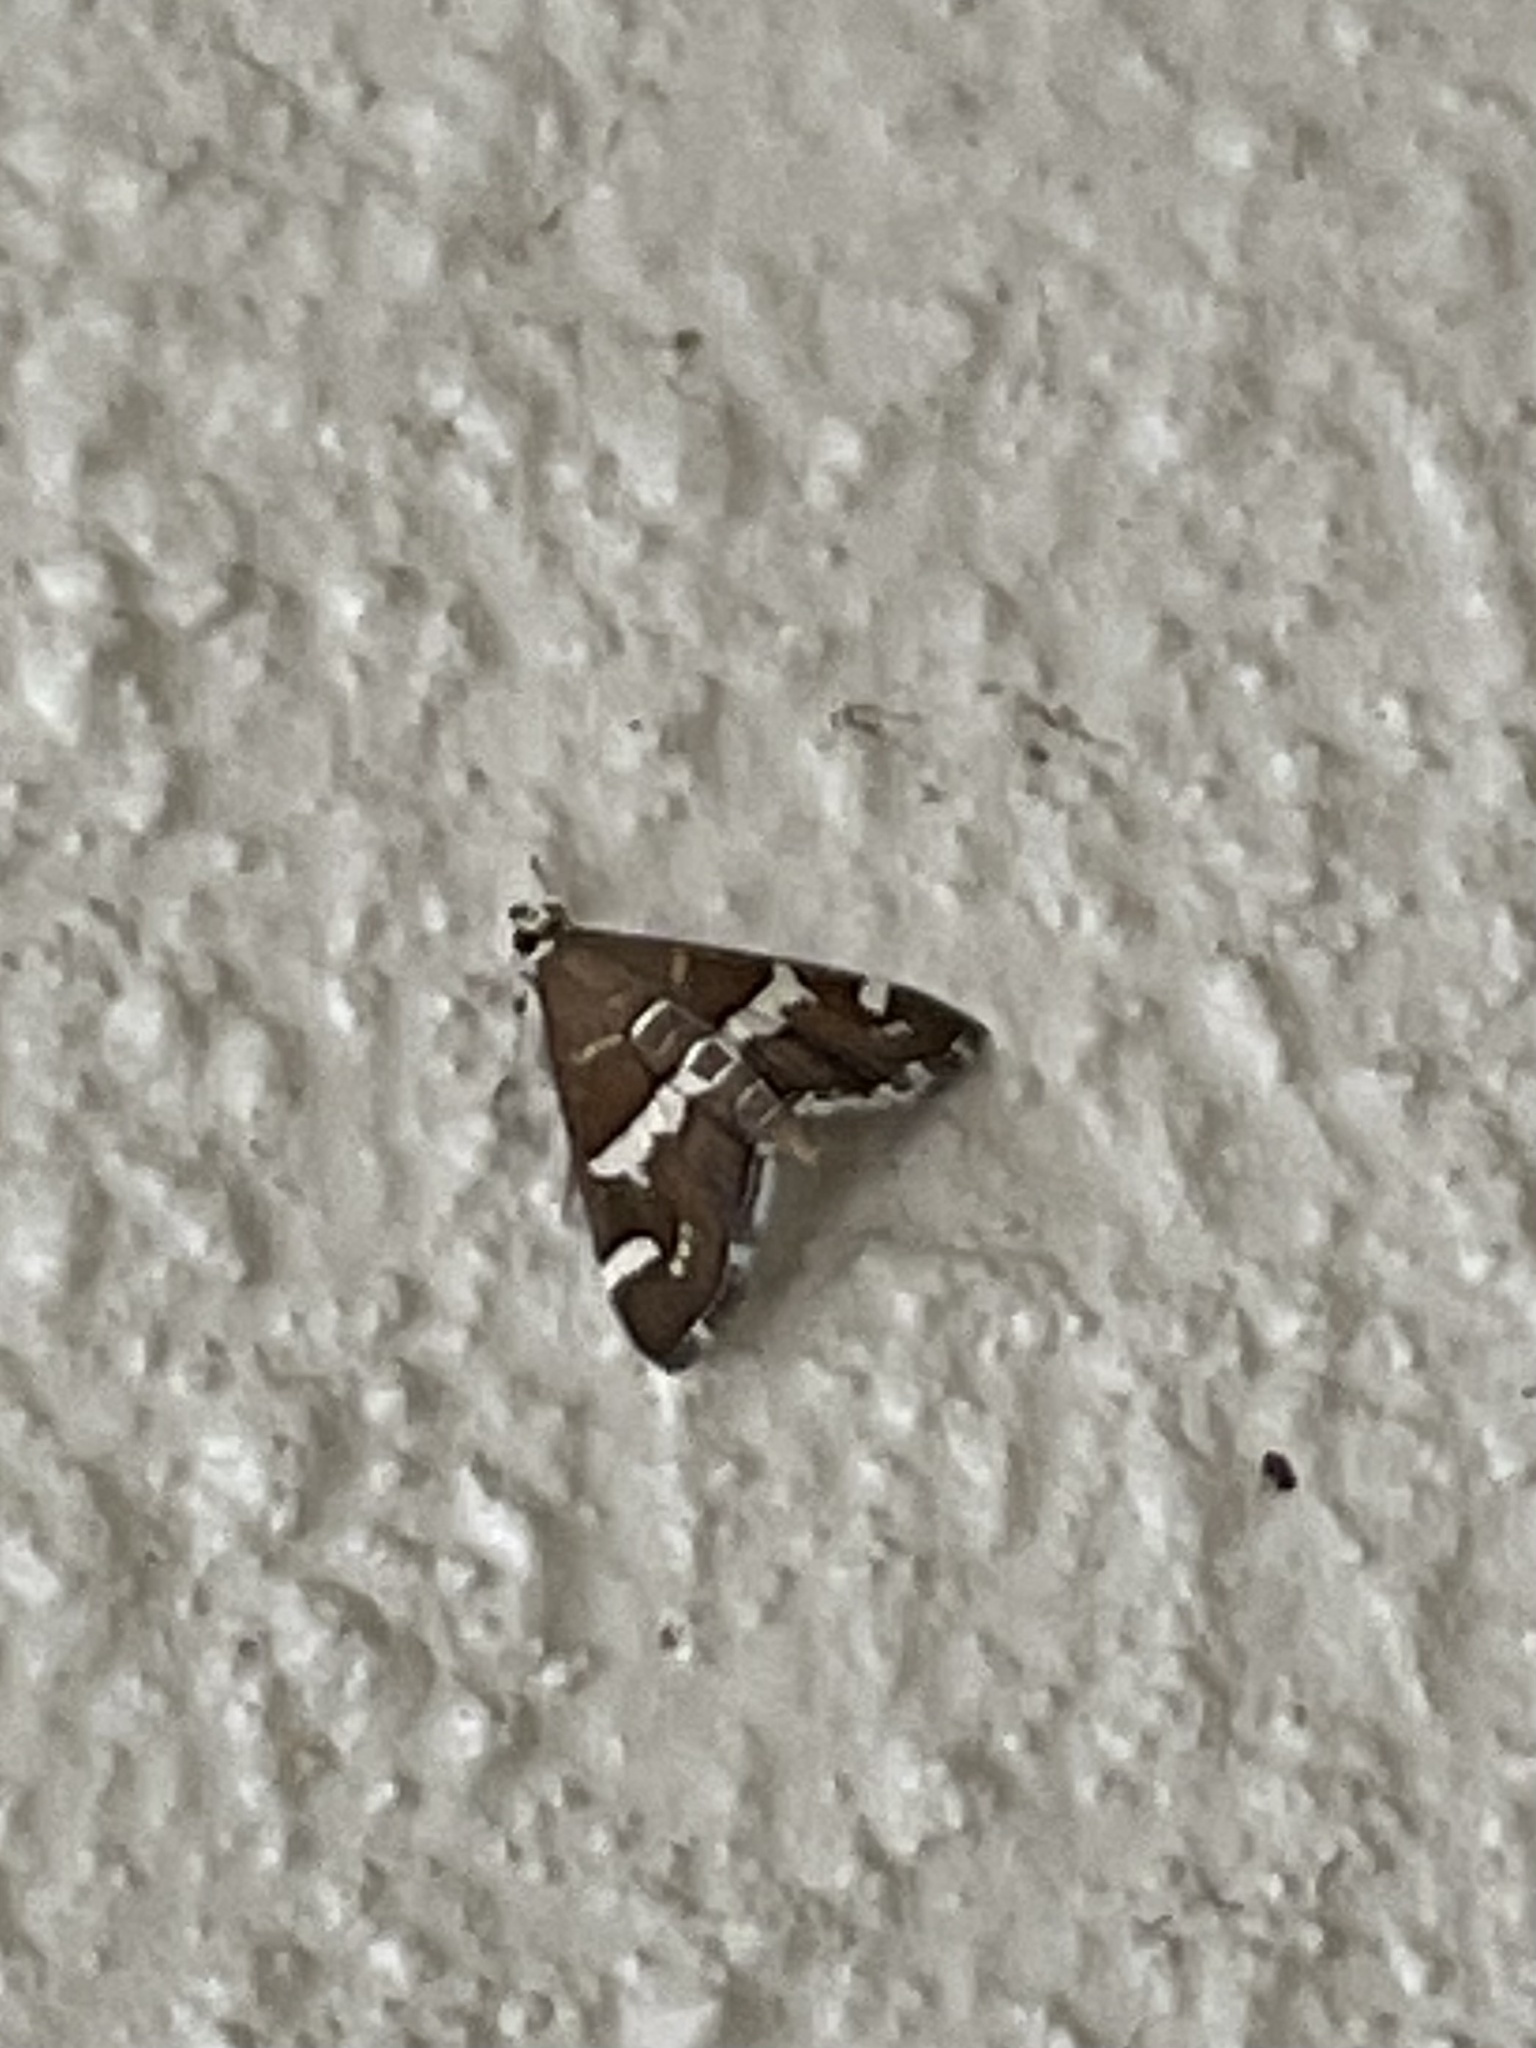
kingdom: Animalia
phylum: Arthropoda
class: Insecta
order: Lepidoptera
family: Crambidae
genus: Spoladea
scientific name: Spoladea recurvalis
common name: Beet webworm moth
